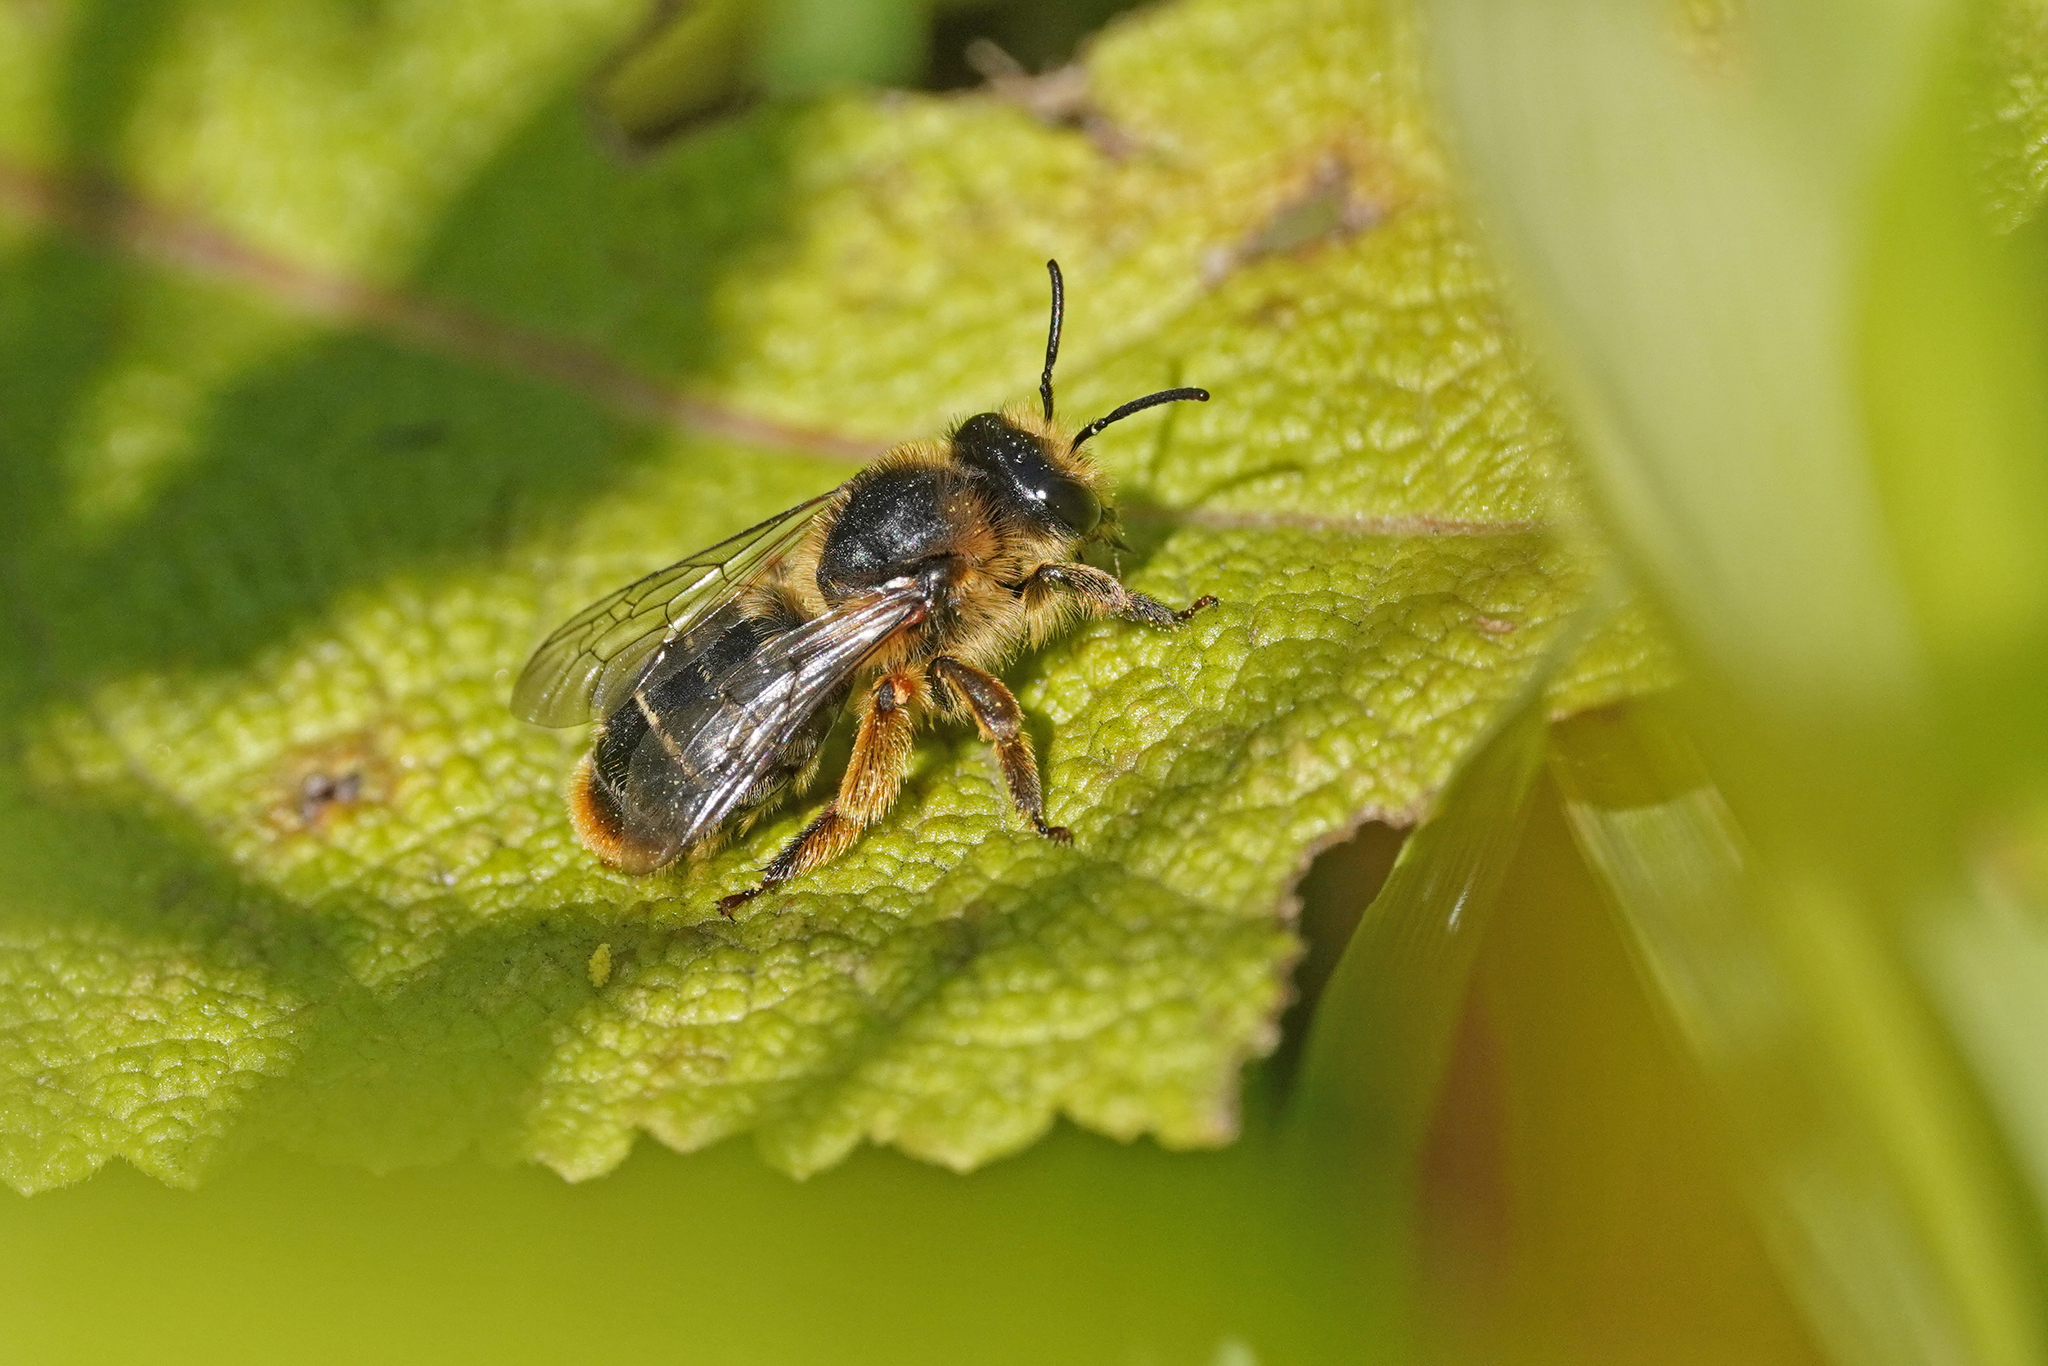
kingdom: Animalia
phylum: Arthropoda
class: Insecta
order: Hymenoptera
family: Melittidae
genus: Melitta
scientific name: Melitta haemorrhoidalis
